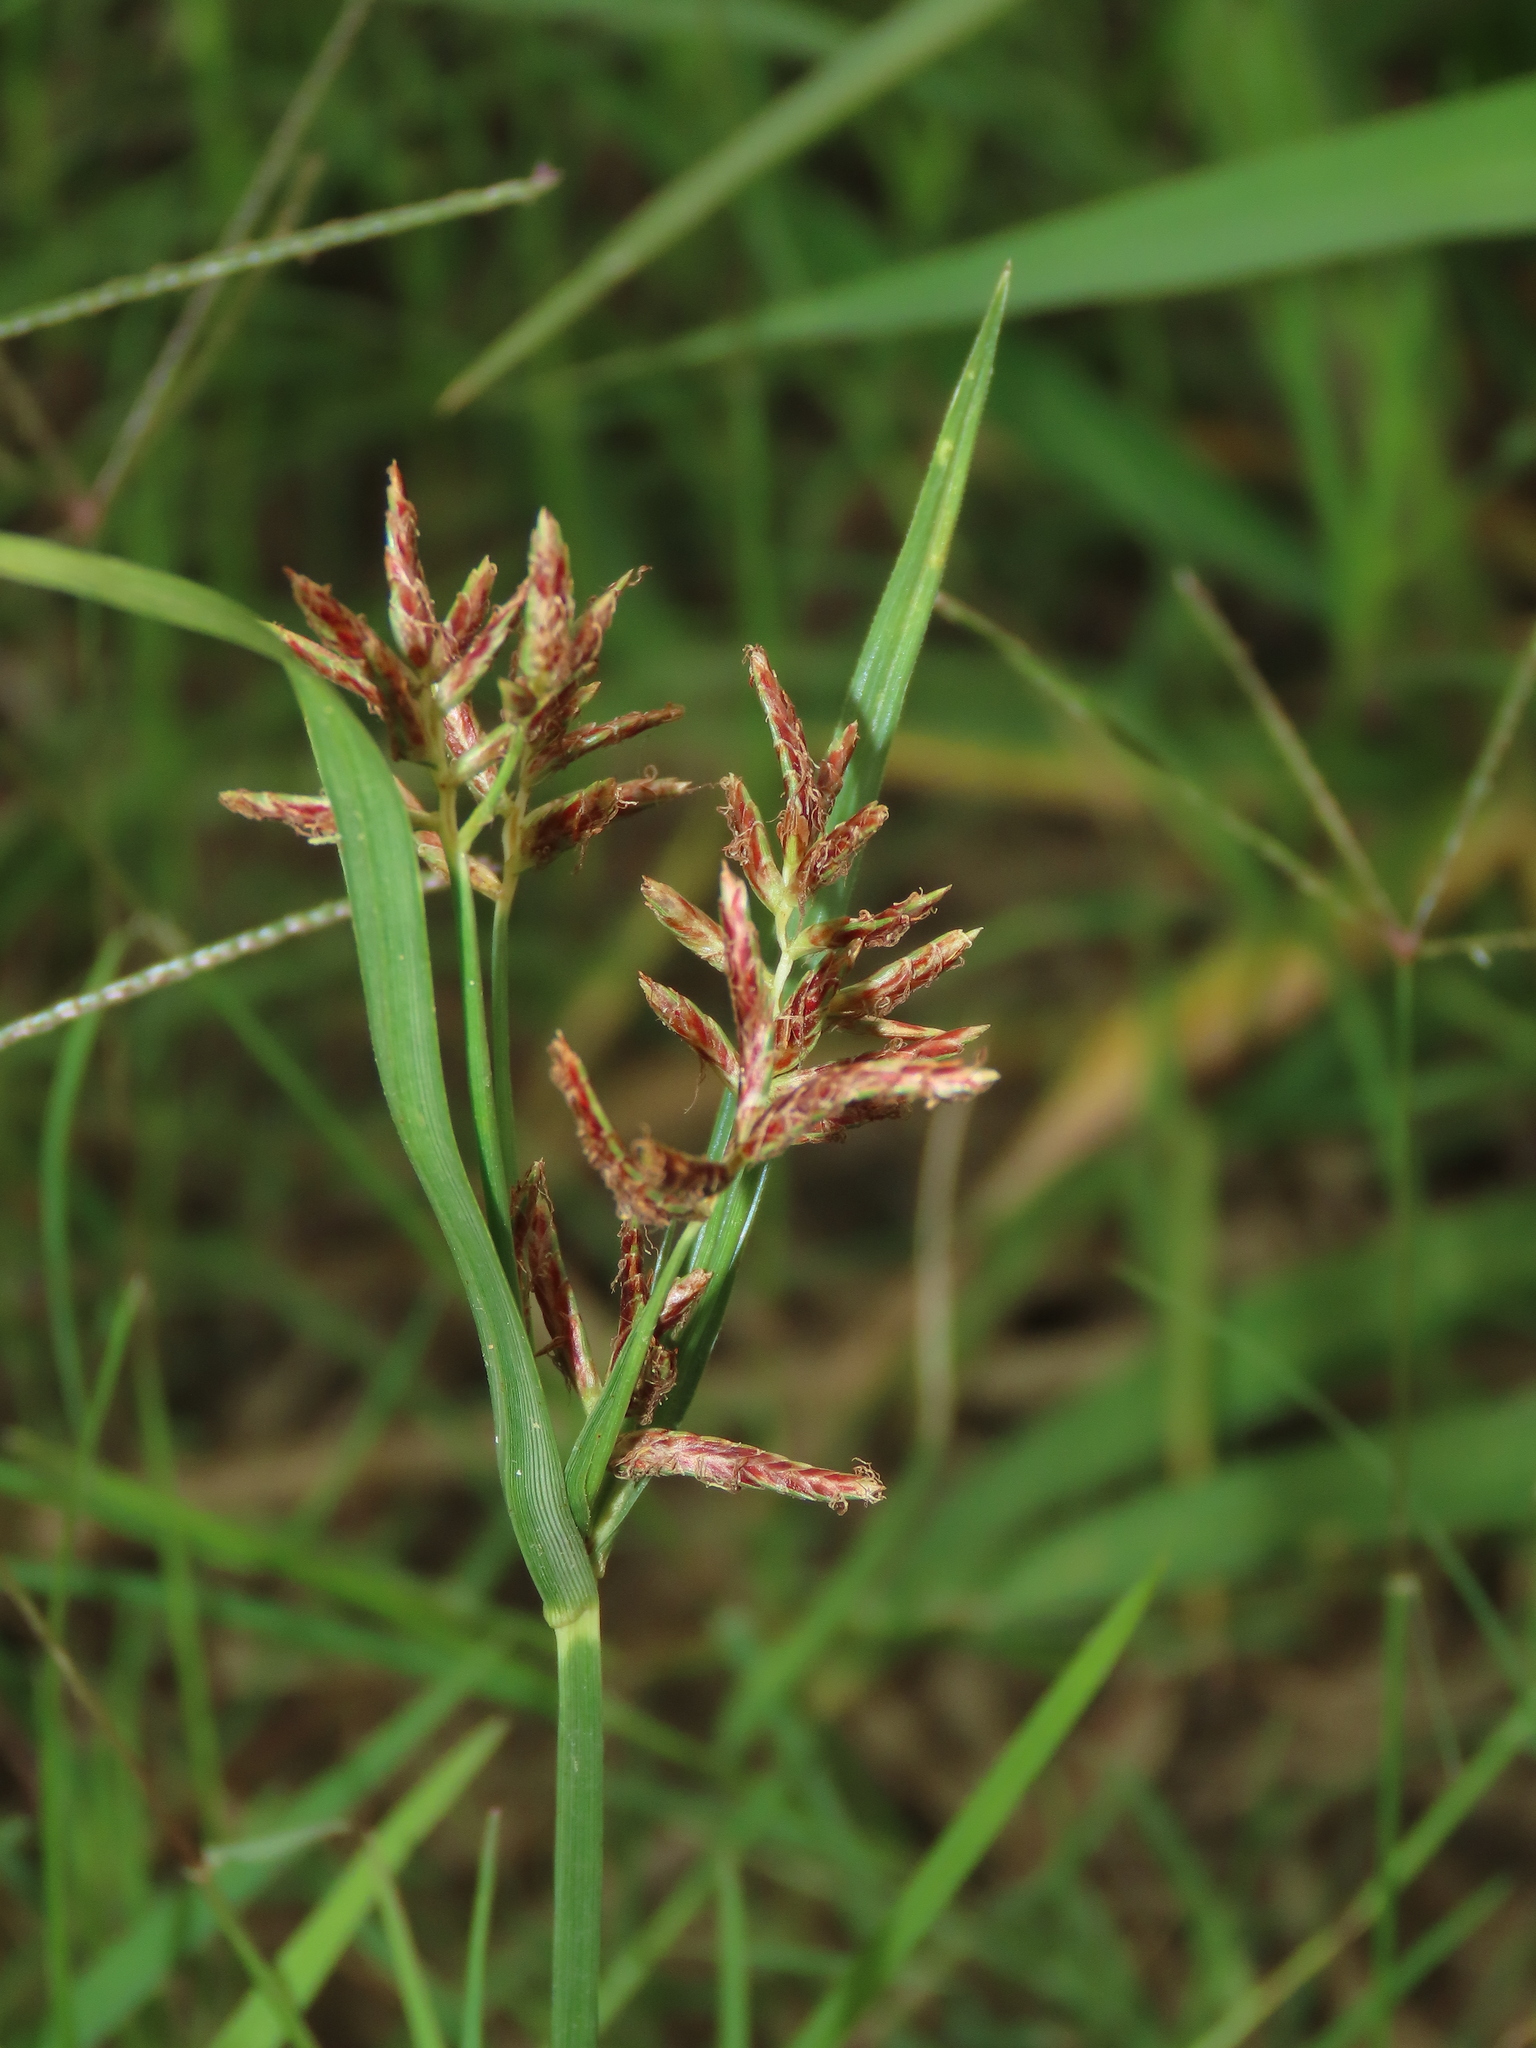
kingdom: Plantae
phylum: Tracheophyta
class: Liliopsida
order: Poales
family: Cyperaceae
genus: Cyperus
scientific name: Cyperus rotundus
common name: Nutgrass
